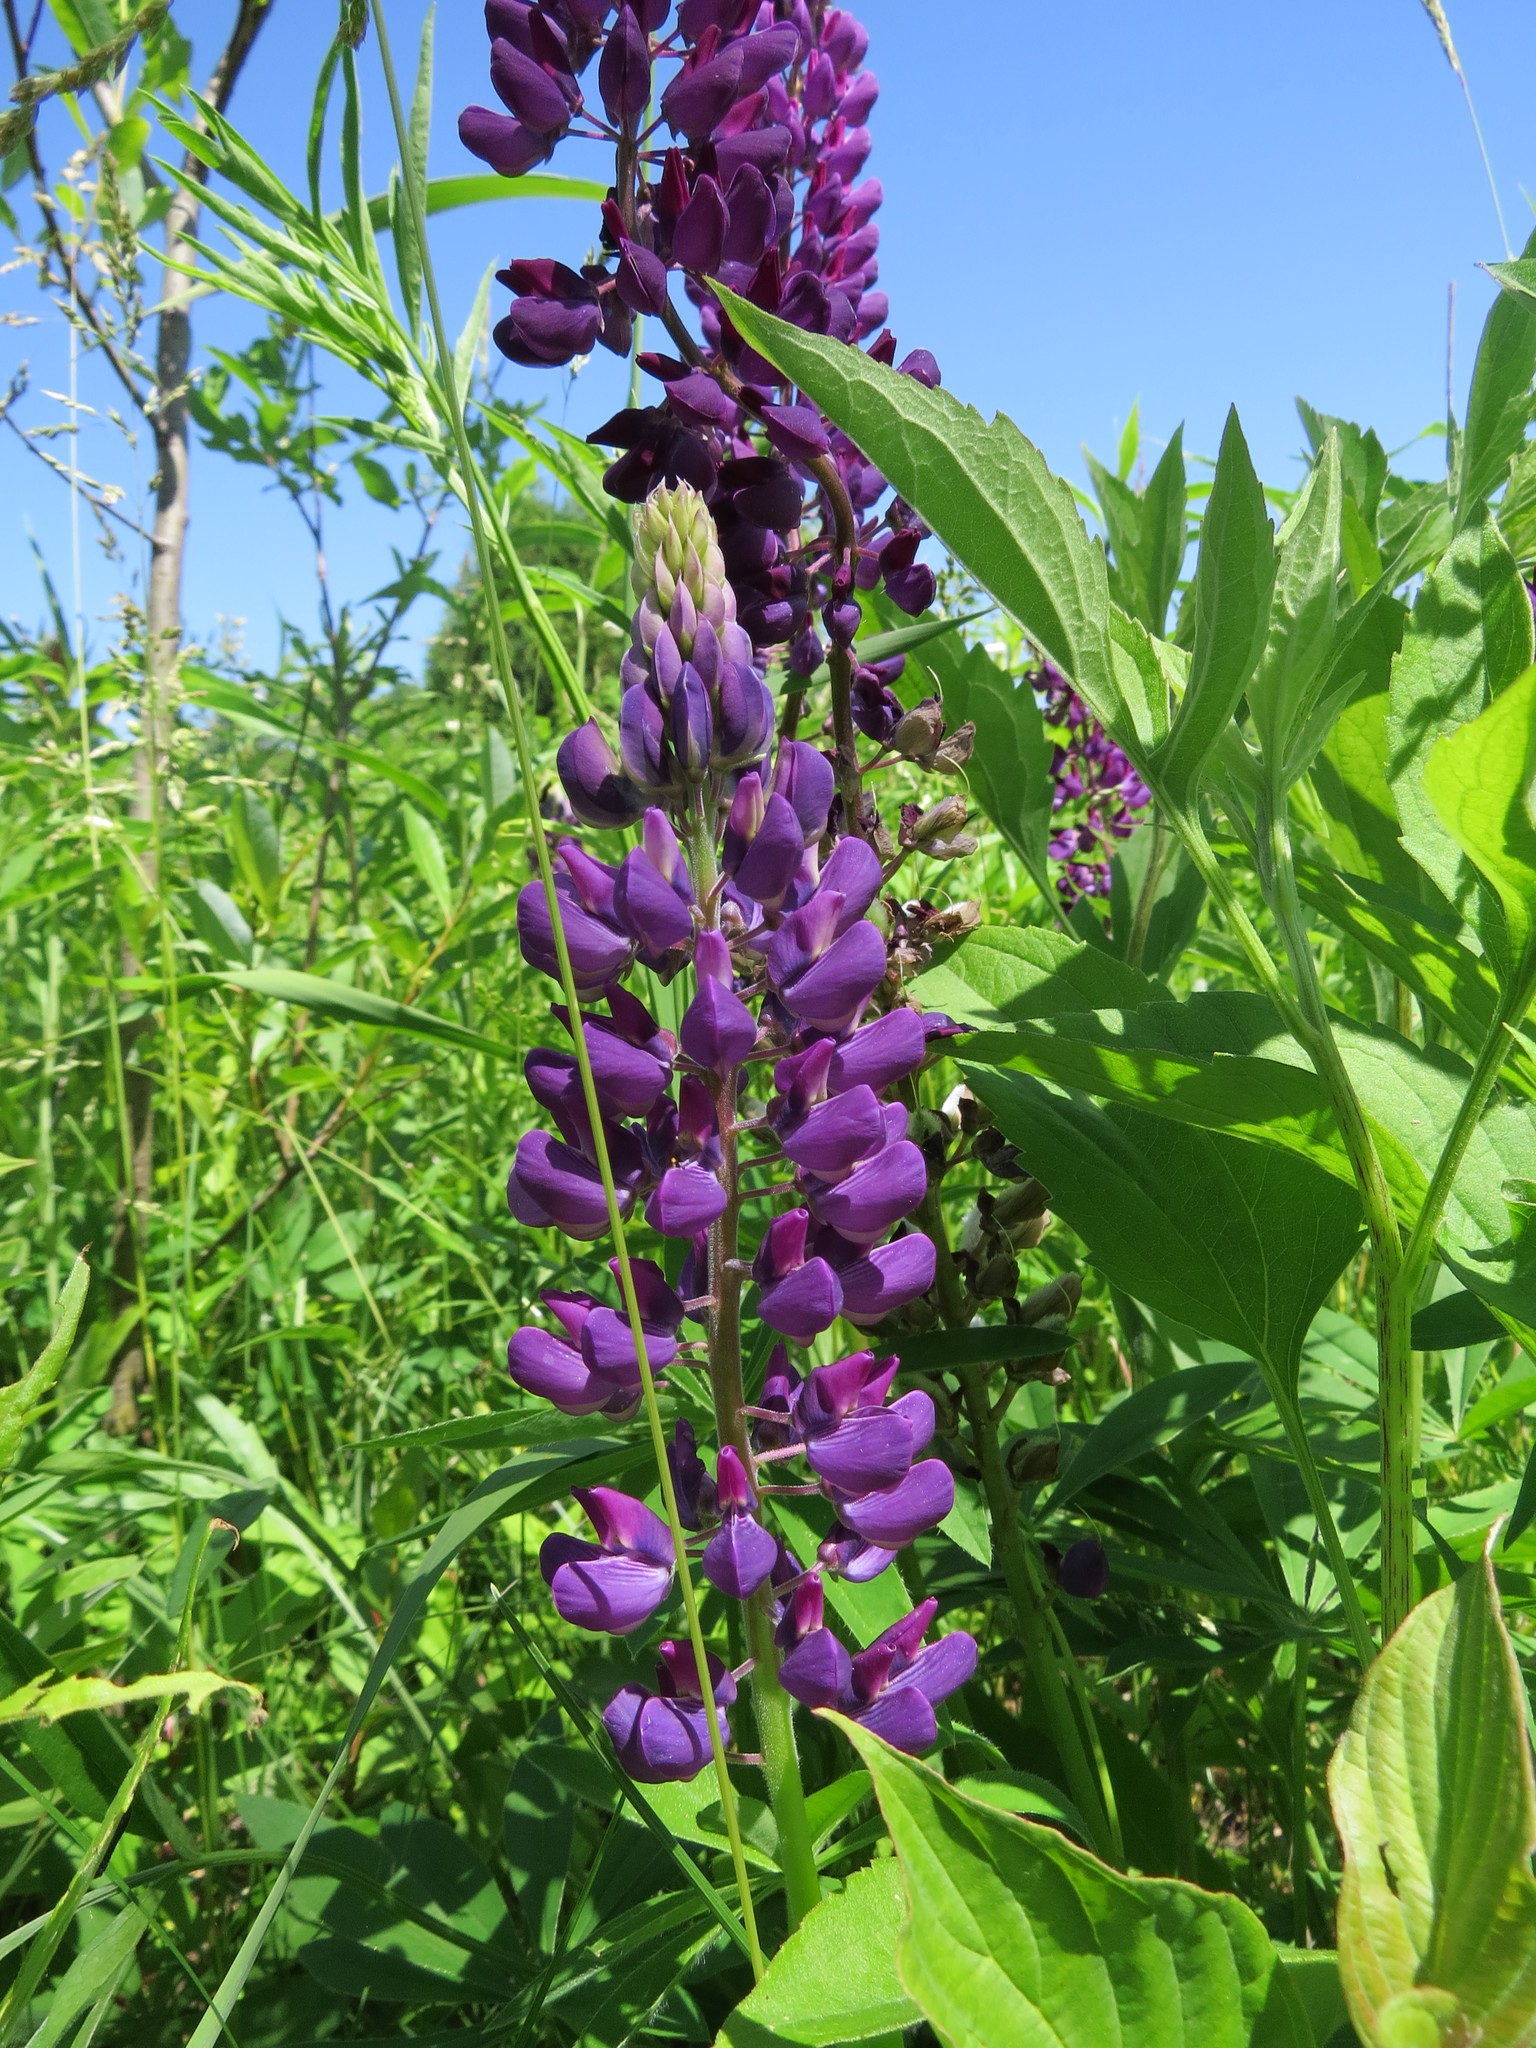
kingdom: Plantae
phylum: Tracheophyta
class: Magnoliopsida
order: Fabales
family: Fabaceae
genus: Lupinus
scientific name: Lupinus polyphyllus
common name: Garden lupin
